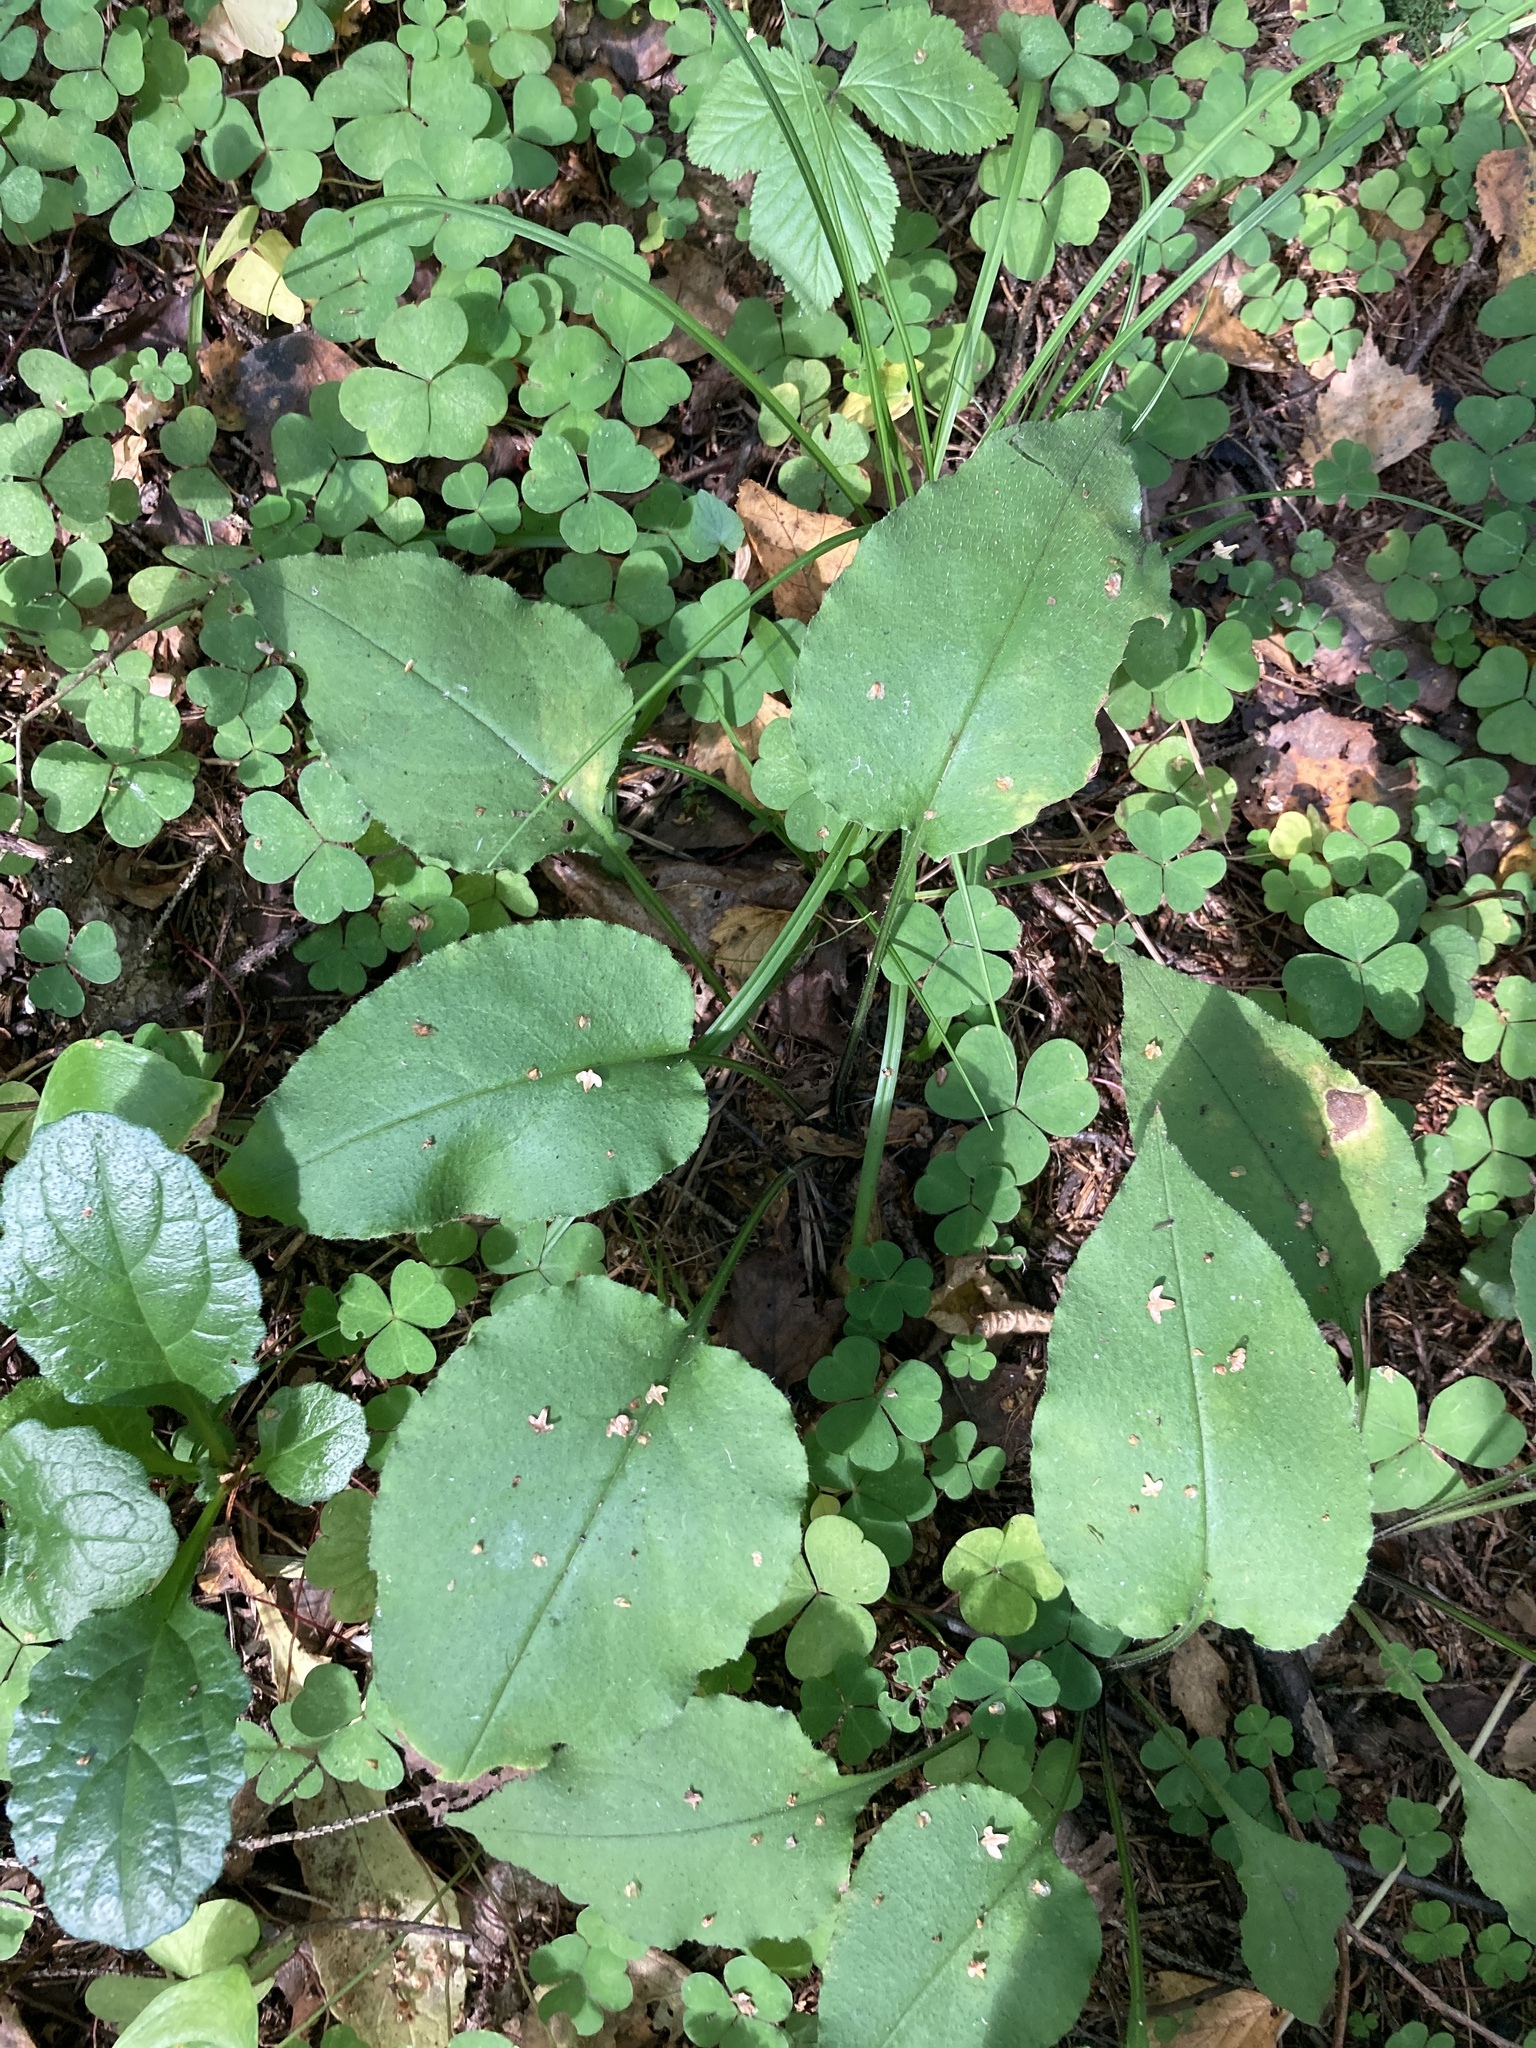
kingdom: Plantae
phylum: Tracheophyta
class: Magnoliopsida
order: Boraginales
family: Boraginaceae
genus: Pulmonaria
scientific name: Pulmonaria obscura
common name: Suffolk lungwort
